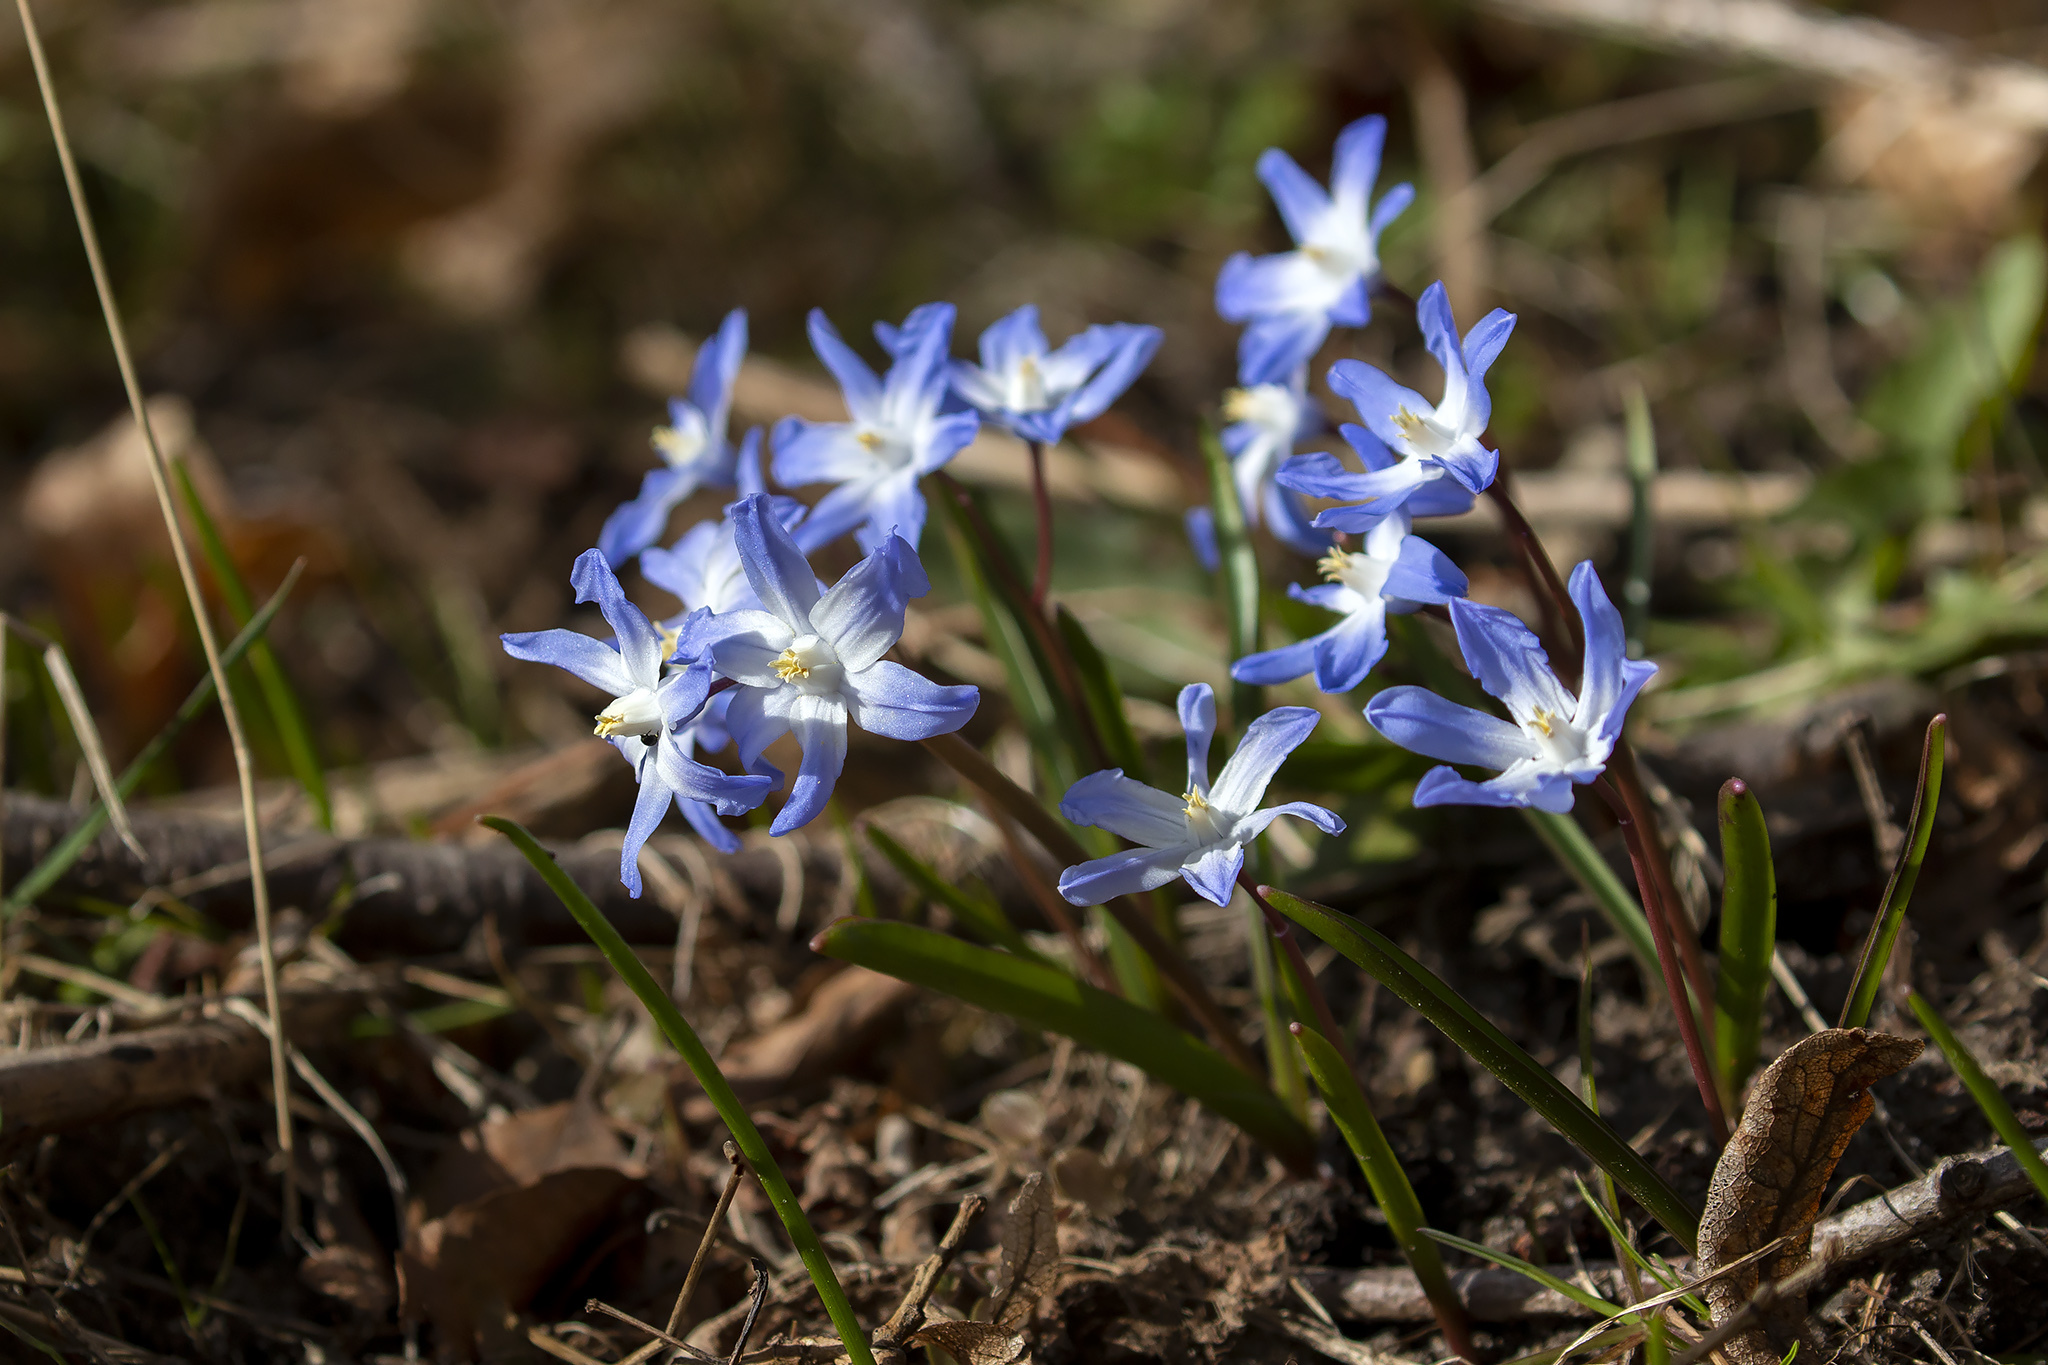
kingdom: Plantae
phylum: Tracheophyta
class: Liliopsida
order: Asparagales
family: Asparagaceae
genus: Scilla
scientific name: Scilla luciliae
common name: Boissier's glory-of-the-snow
